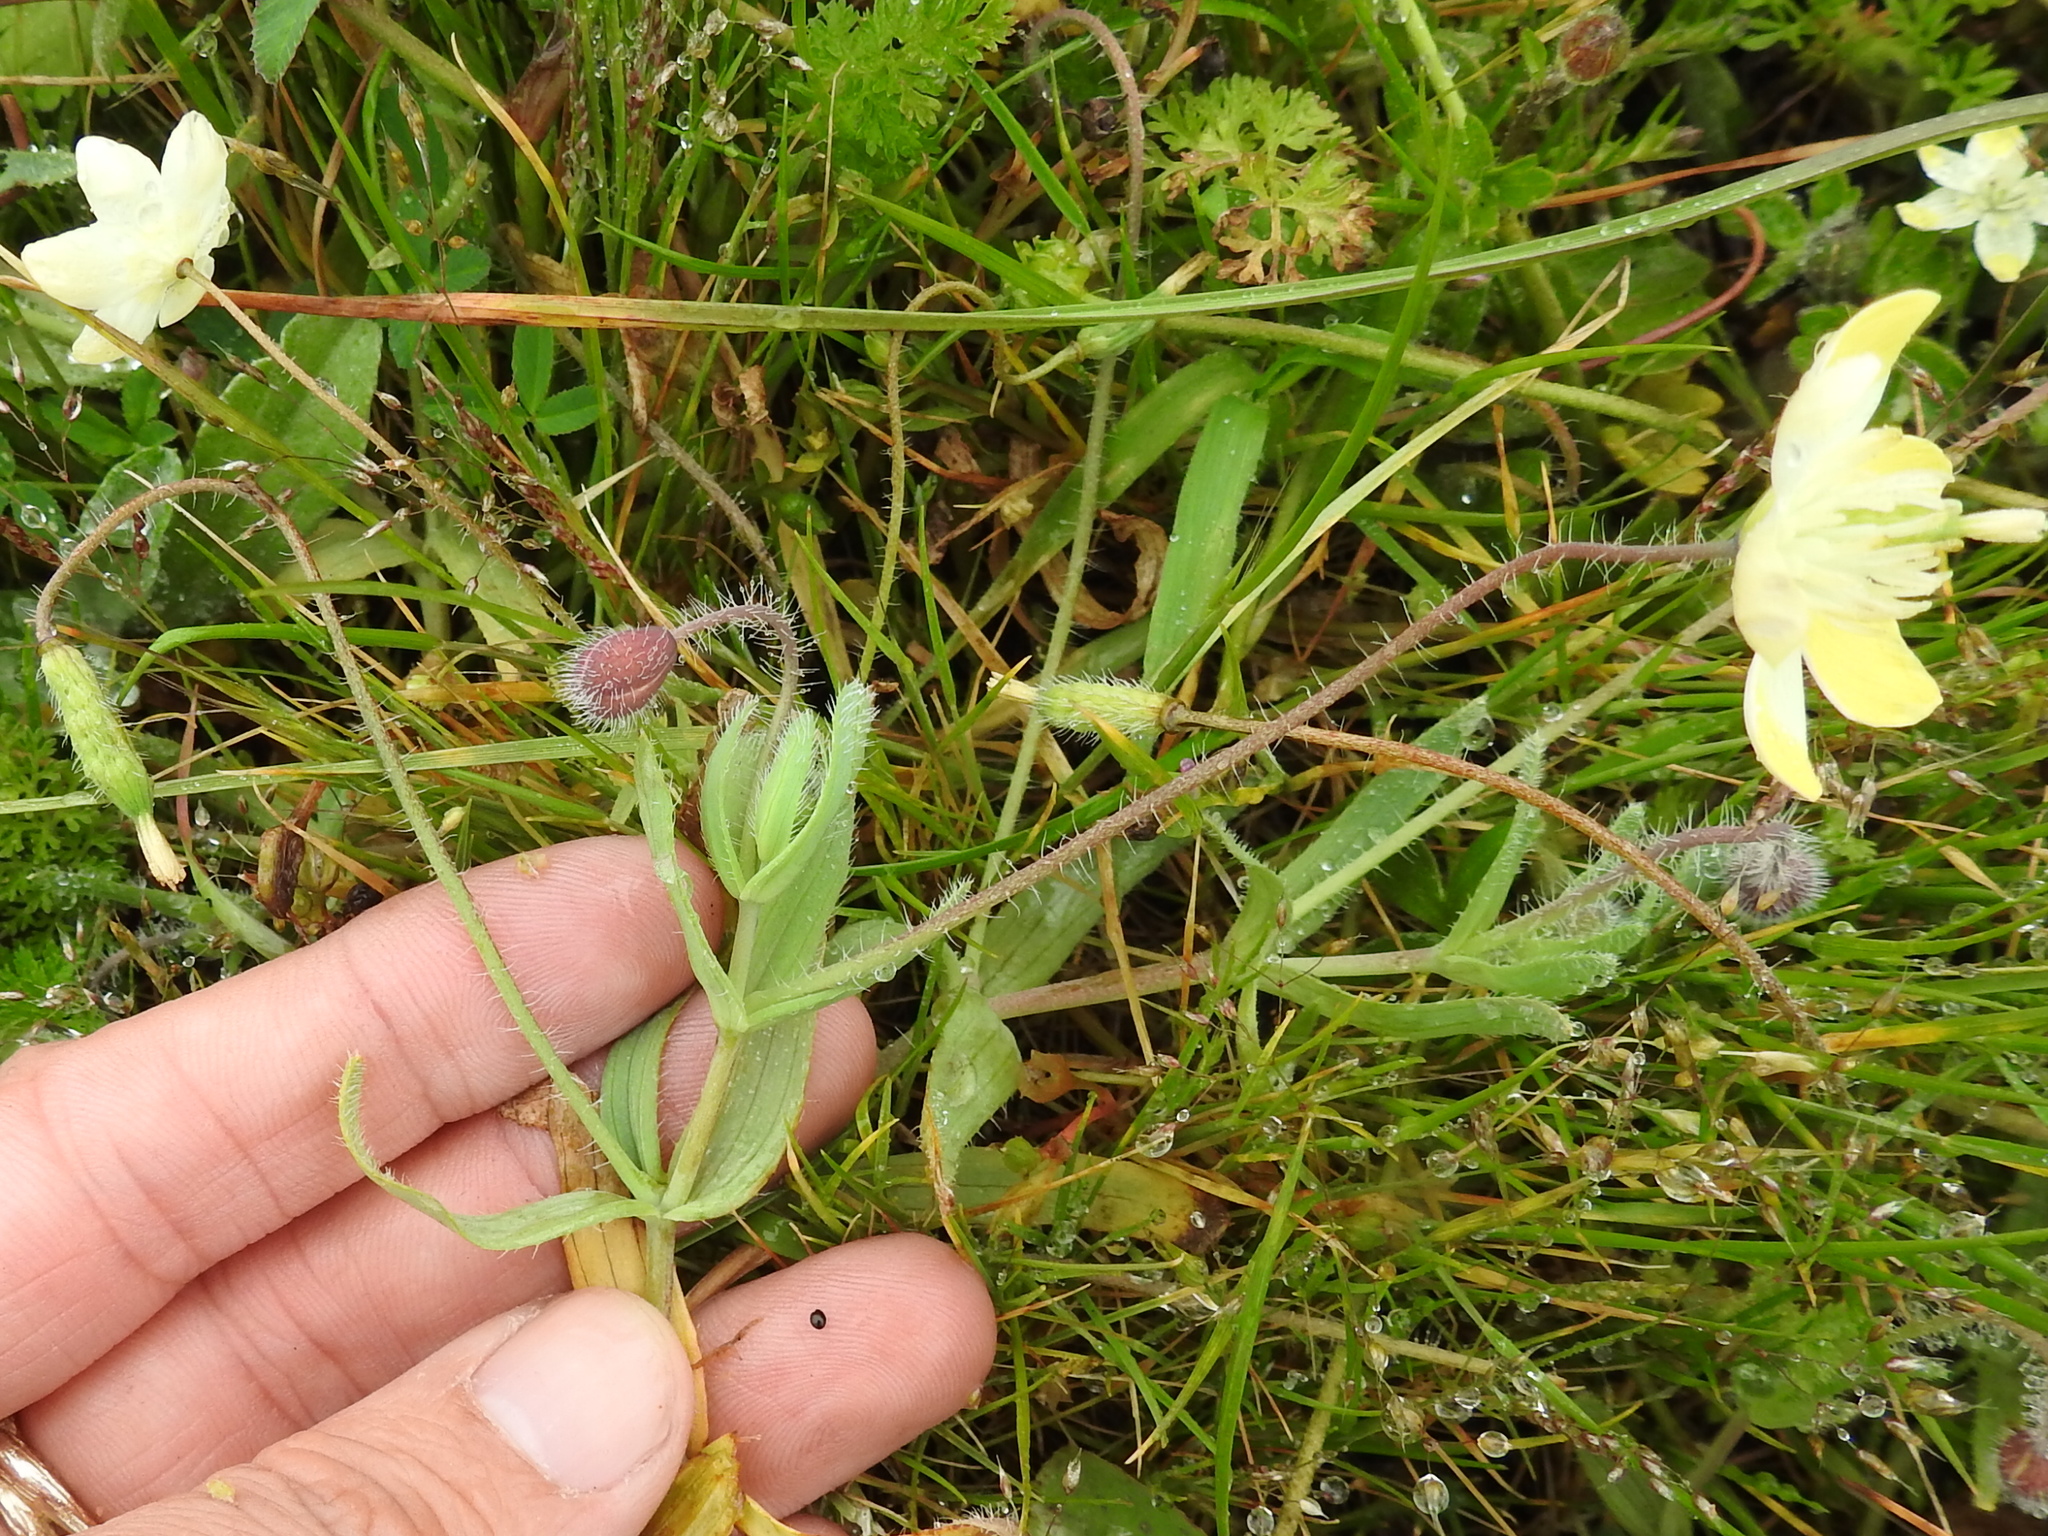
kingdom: Plantae
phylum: Tracheophyta
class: Magnoliopsida
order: Ranunculales
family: Papaveraceae
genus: Platystemon
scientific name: Platystemon californicus
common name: Cream-cups
